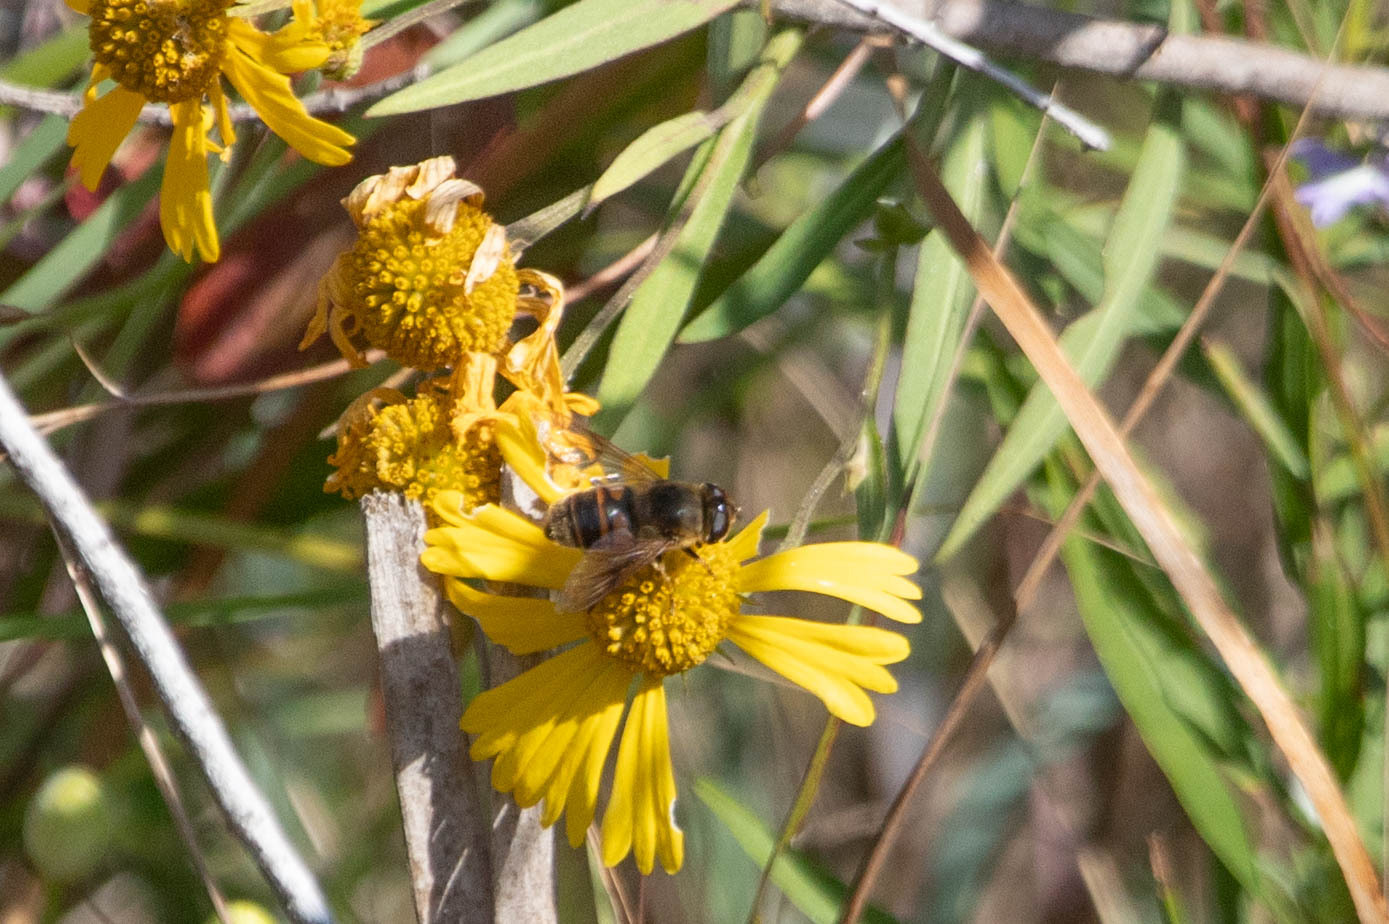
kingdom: Animalia
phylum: Arthropoda
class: Insecta
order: Diptera
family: Syrphidae
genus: Eristalis
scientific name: Eristalis tenax
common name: Drone fly
